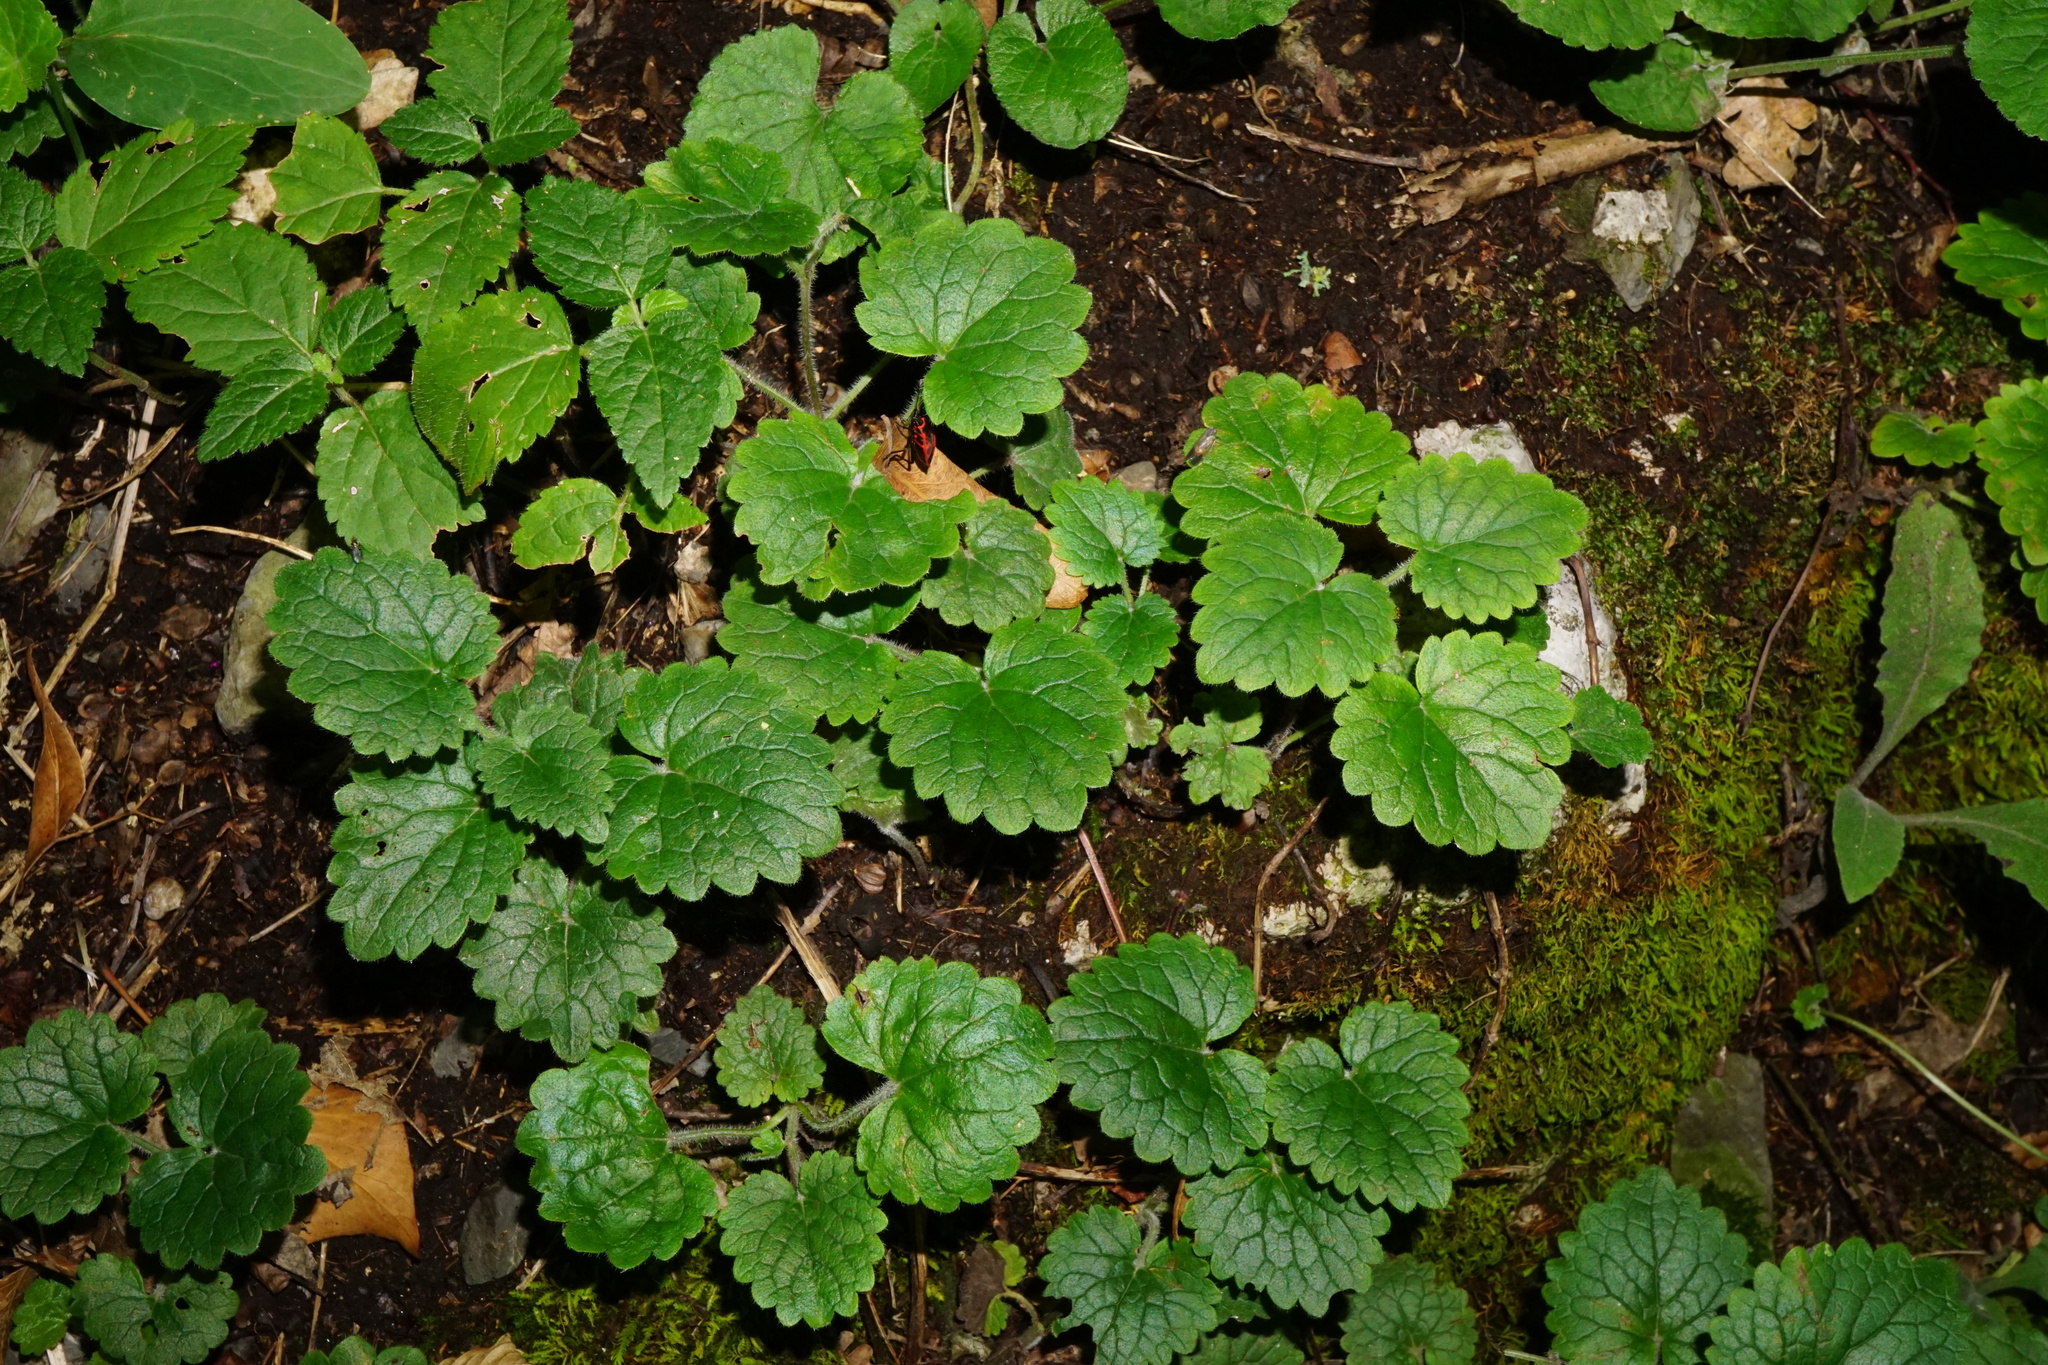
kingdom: Plantae
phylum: Tracheophyta
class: Magnoliopsida
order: Lamiales
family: Lamiaceae
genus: Glechoma
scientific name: Glechoma hirsuta
